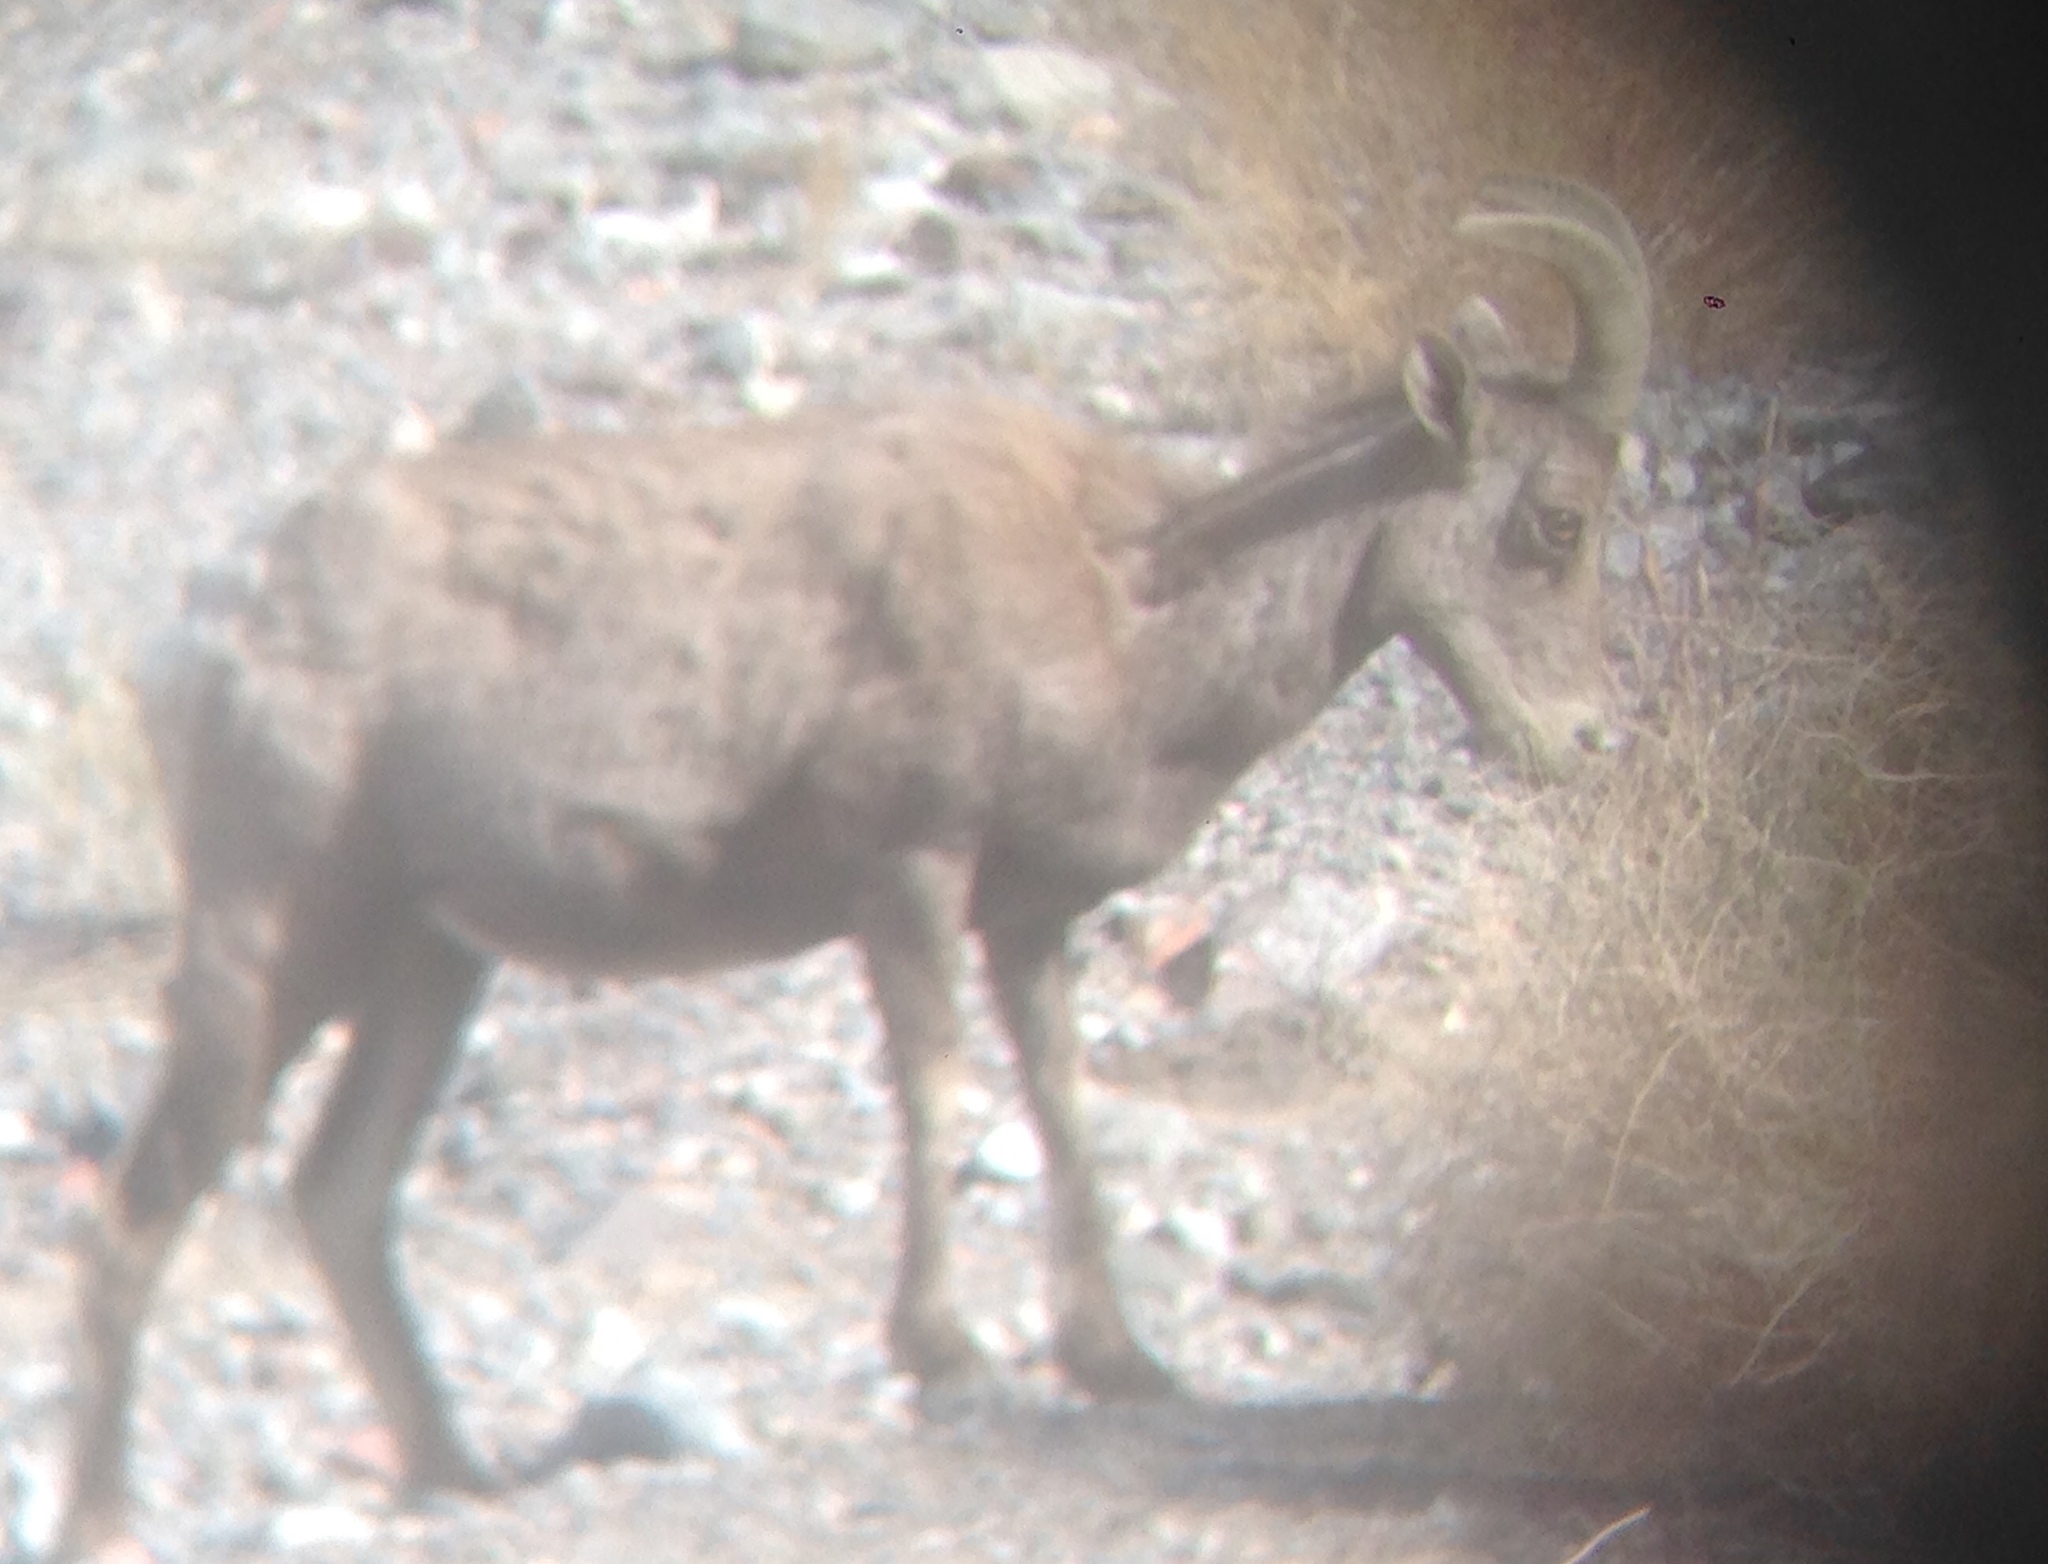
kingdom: Animalia
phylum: Chordata
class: Mammalia
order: Artiodactyla
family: Bovidae
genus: Ovis
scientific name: Ovis canadensis
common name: Bighorn sheep
